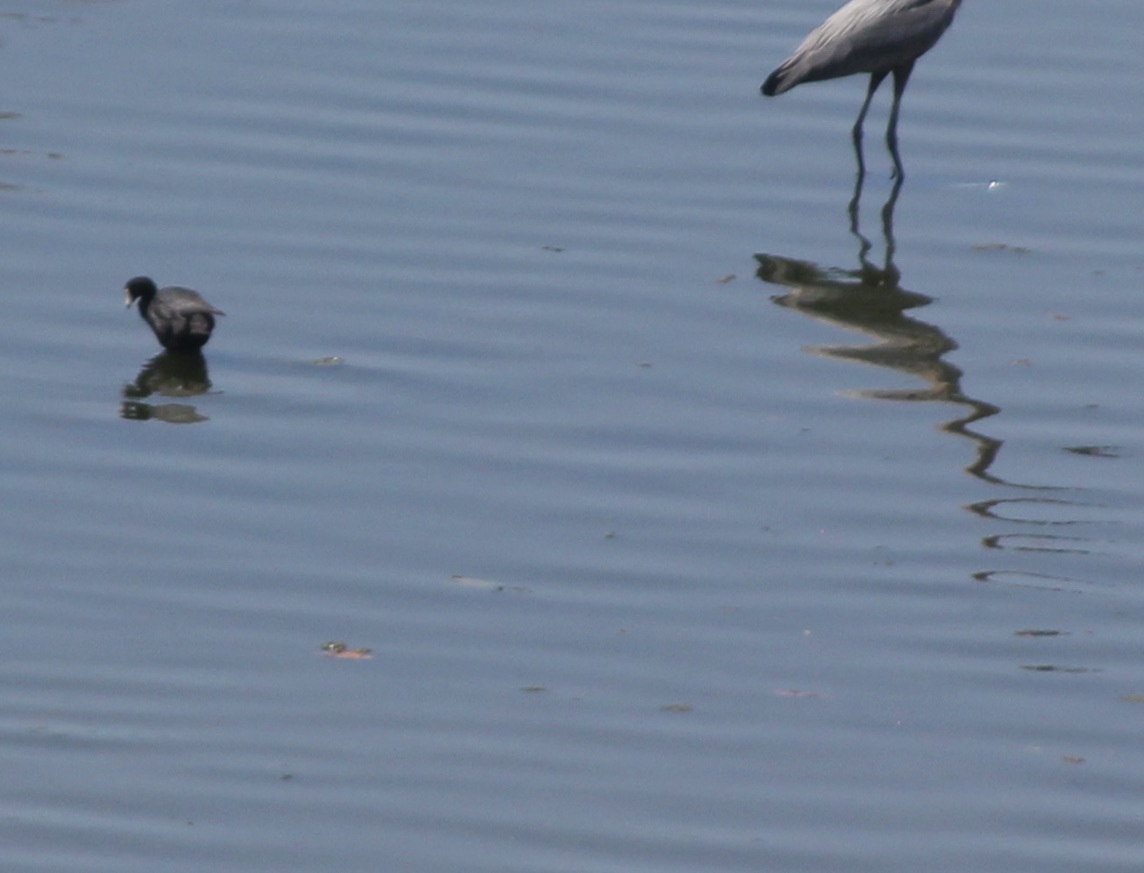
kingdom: Animalia
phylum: Chordata
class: Aves
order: Gruiformes
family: Rallidae
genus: Fulica
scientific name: Fulica americana
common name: American coot
